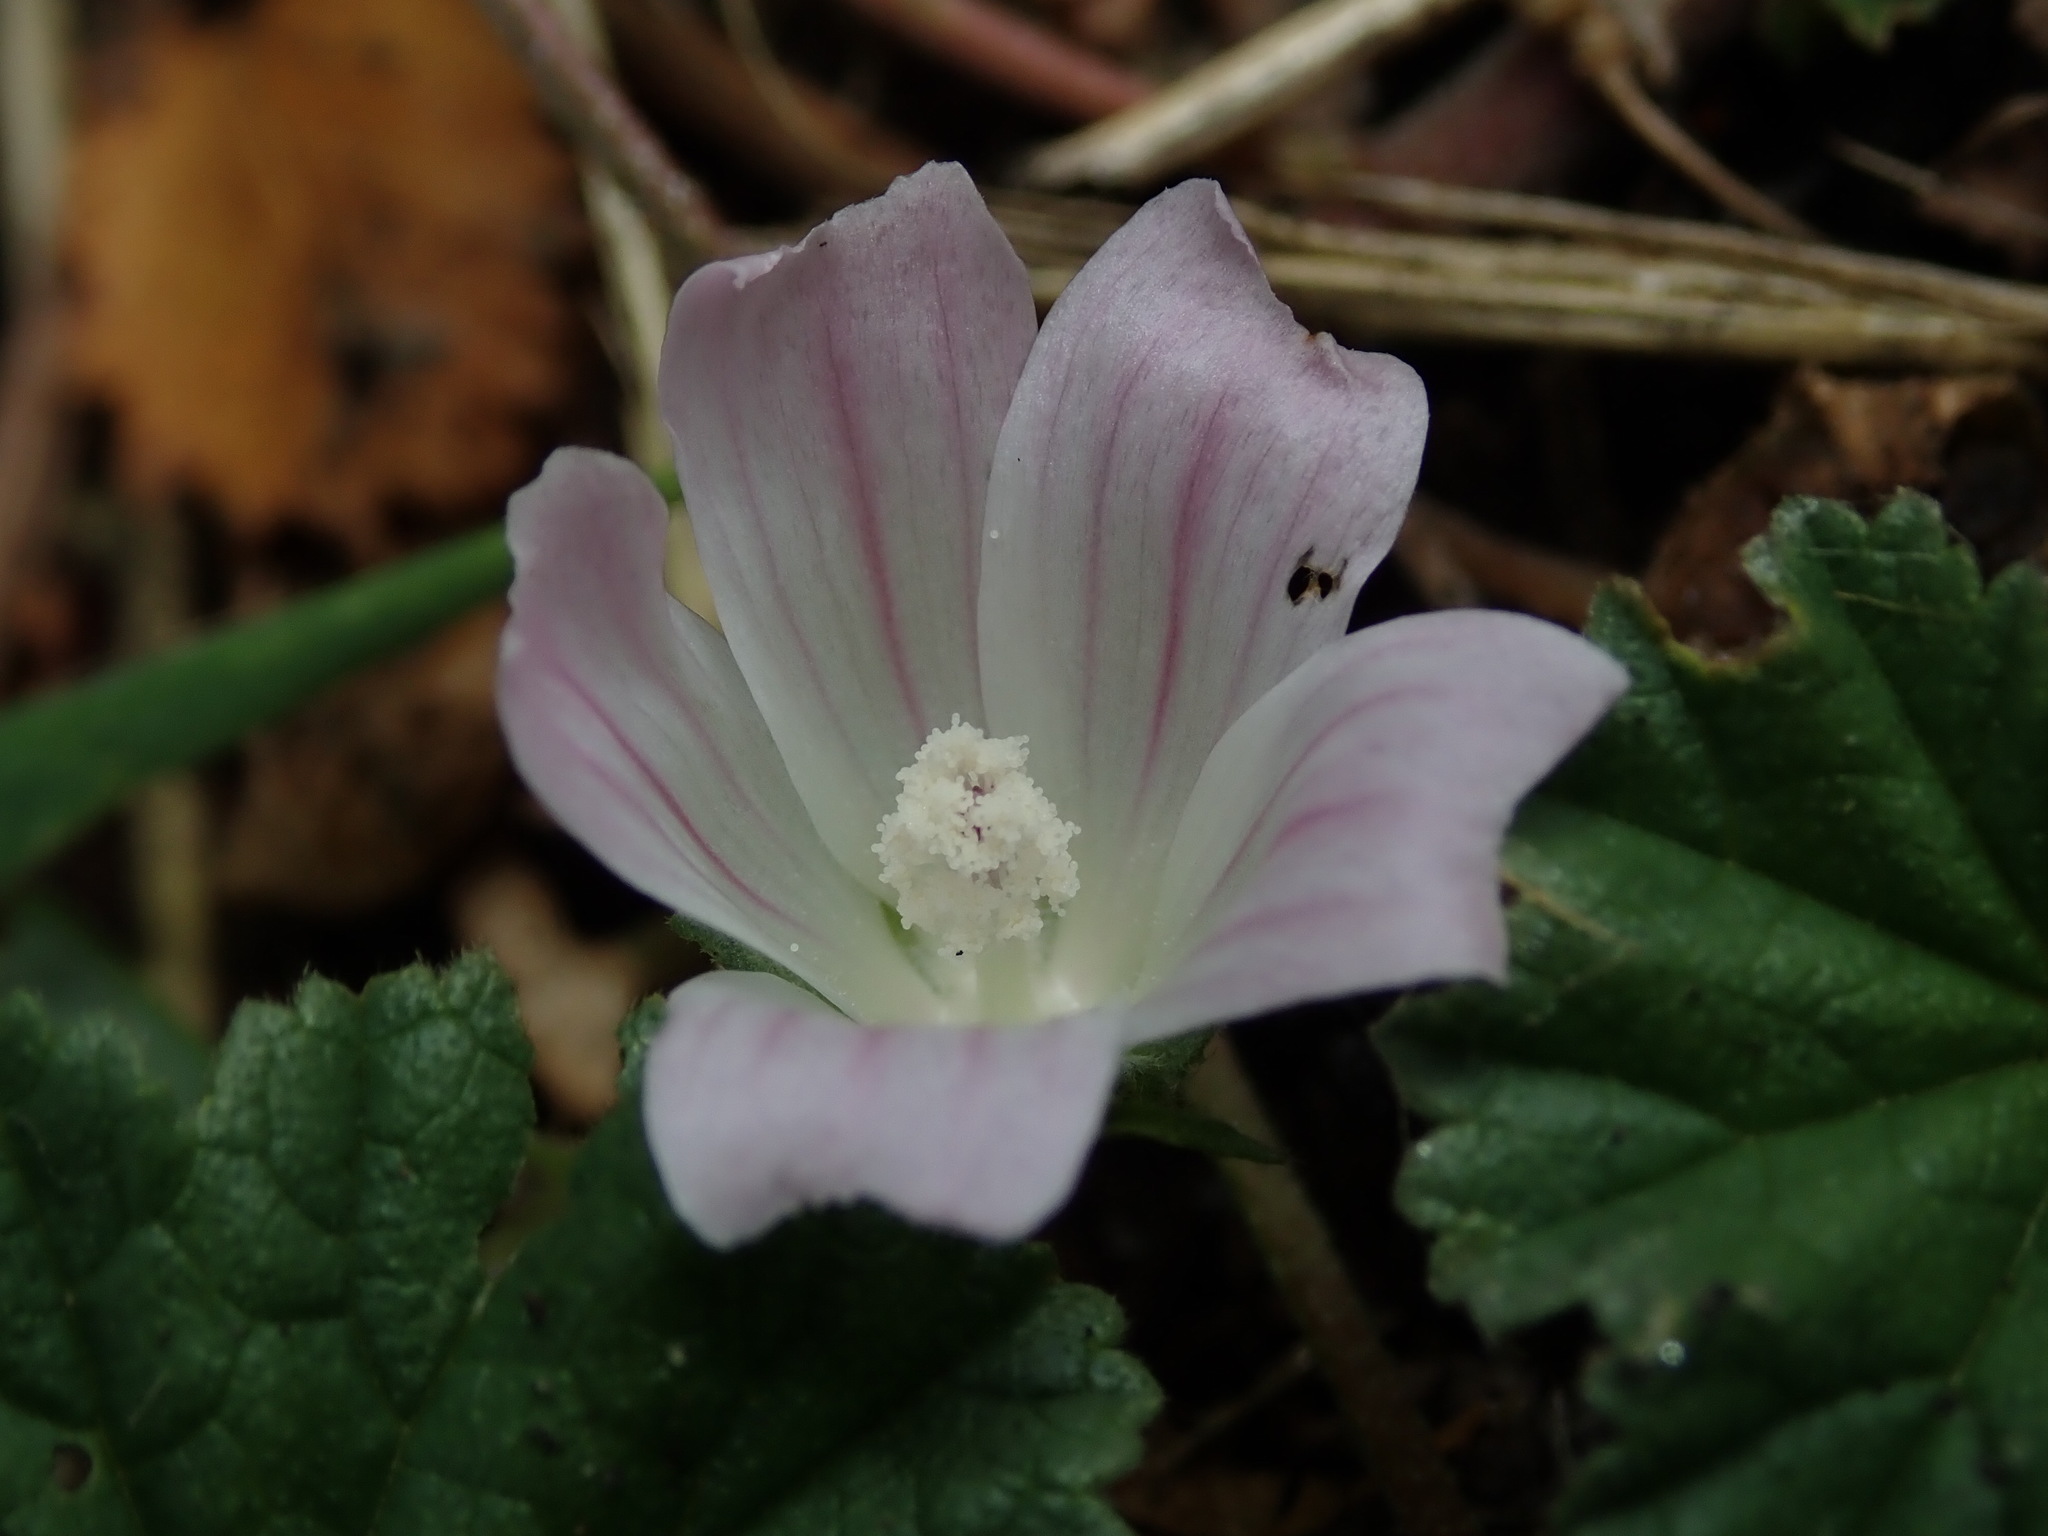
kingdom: Plantae
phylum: Tracheophyta
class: Magnoliopsida
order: Malvales
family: Malvaceae
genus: Malva
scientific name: Malva neglecta
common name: Common mallow
